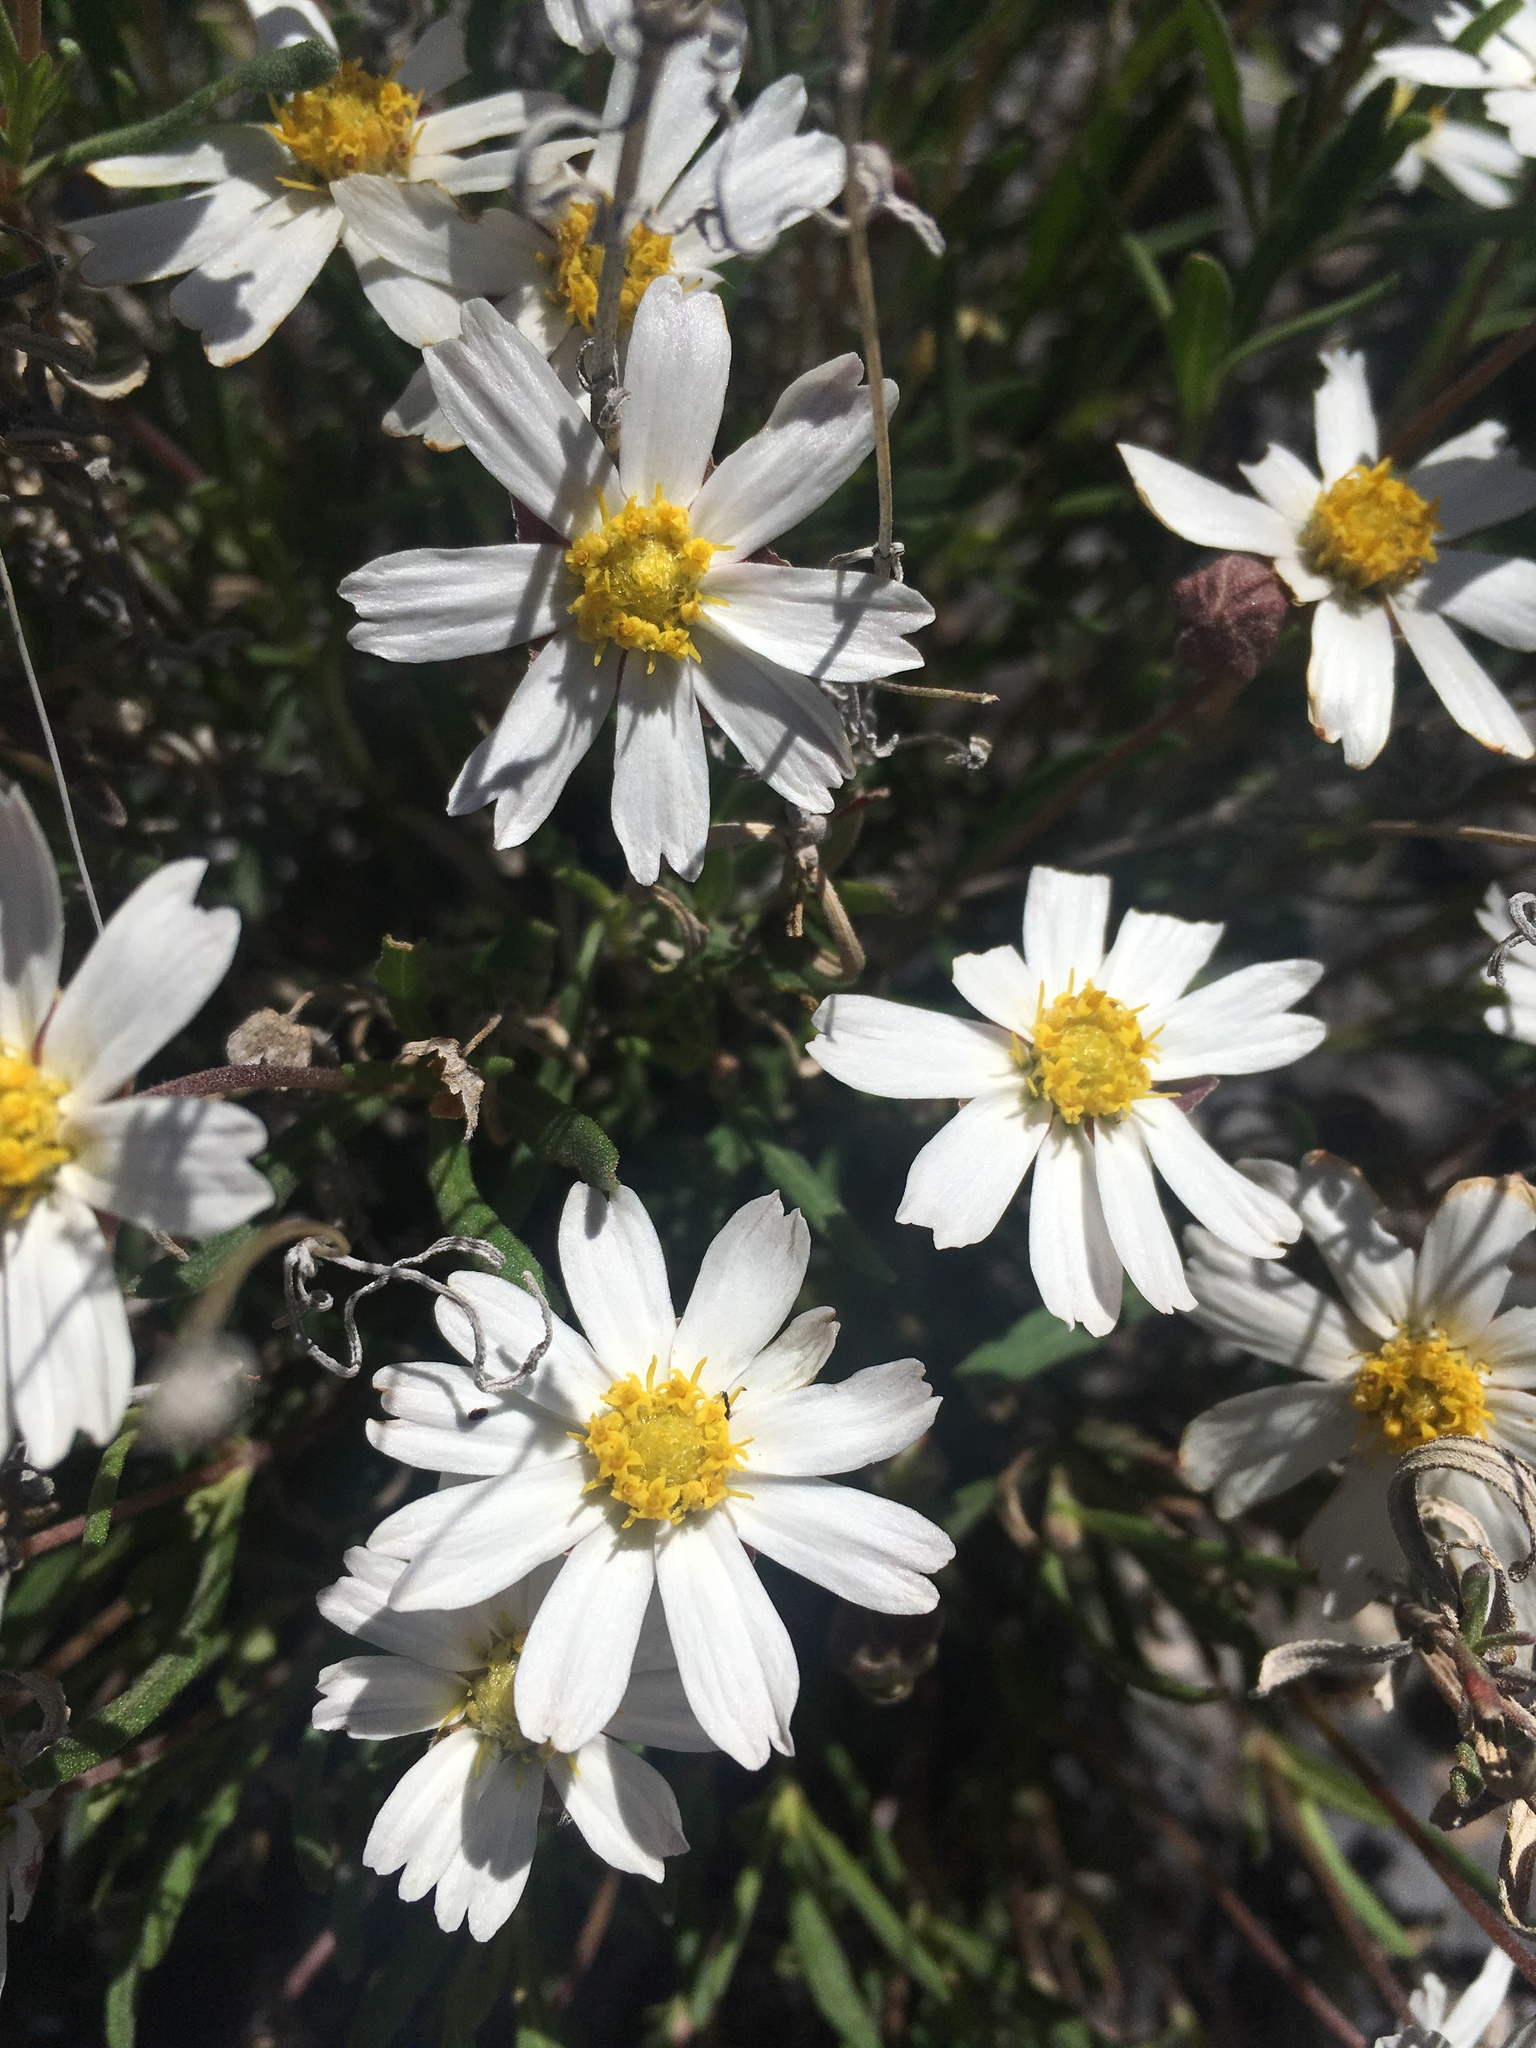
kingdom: Plantae
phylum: Tracheophyta
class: Magnoliopsida
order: Asterales
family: Asteraceae
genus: Melampodium
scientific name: Melampodium leucanthum
